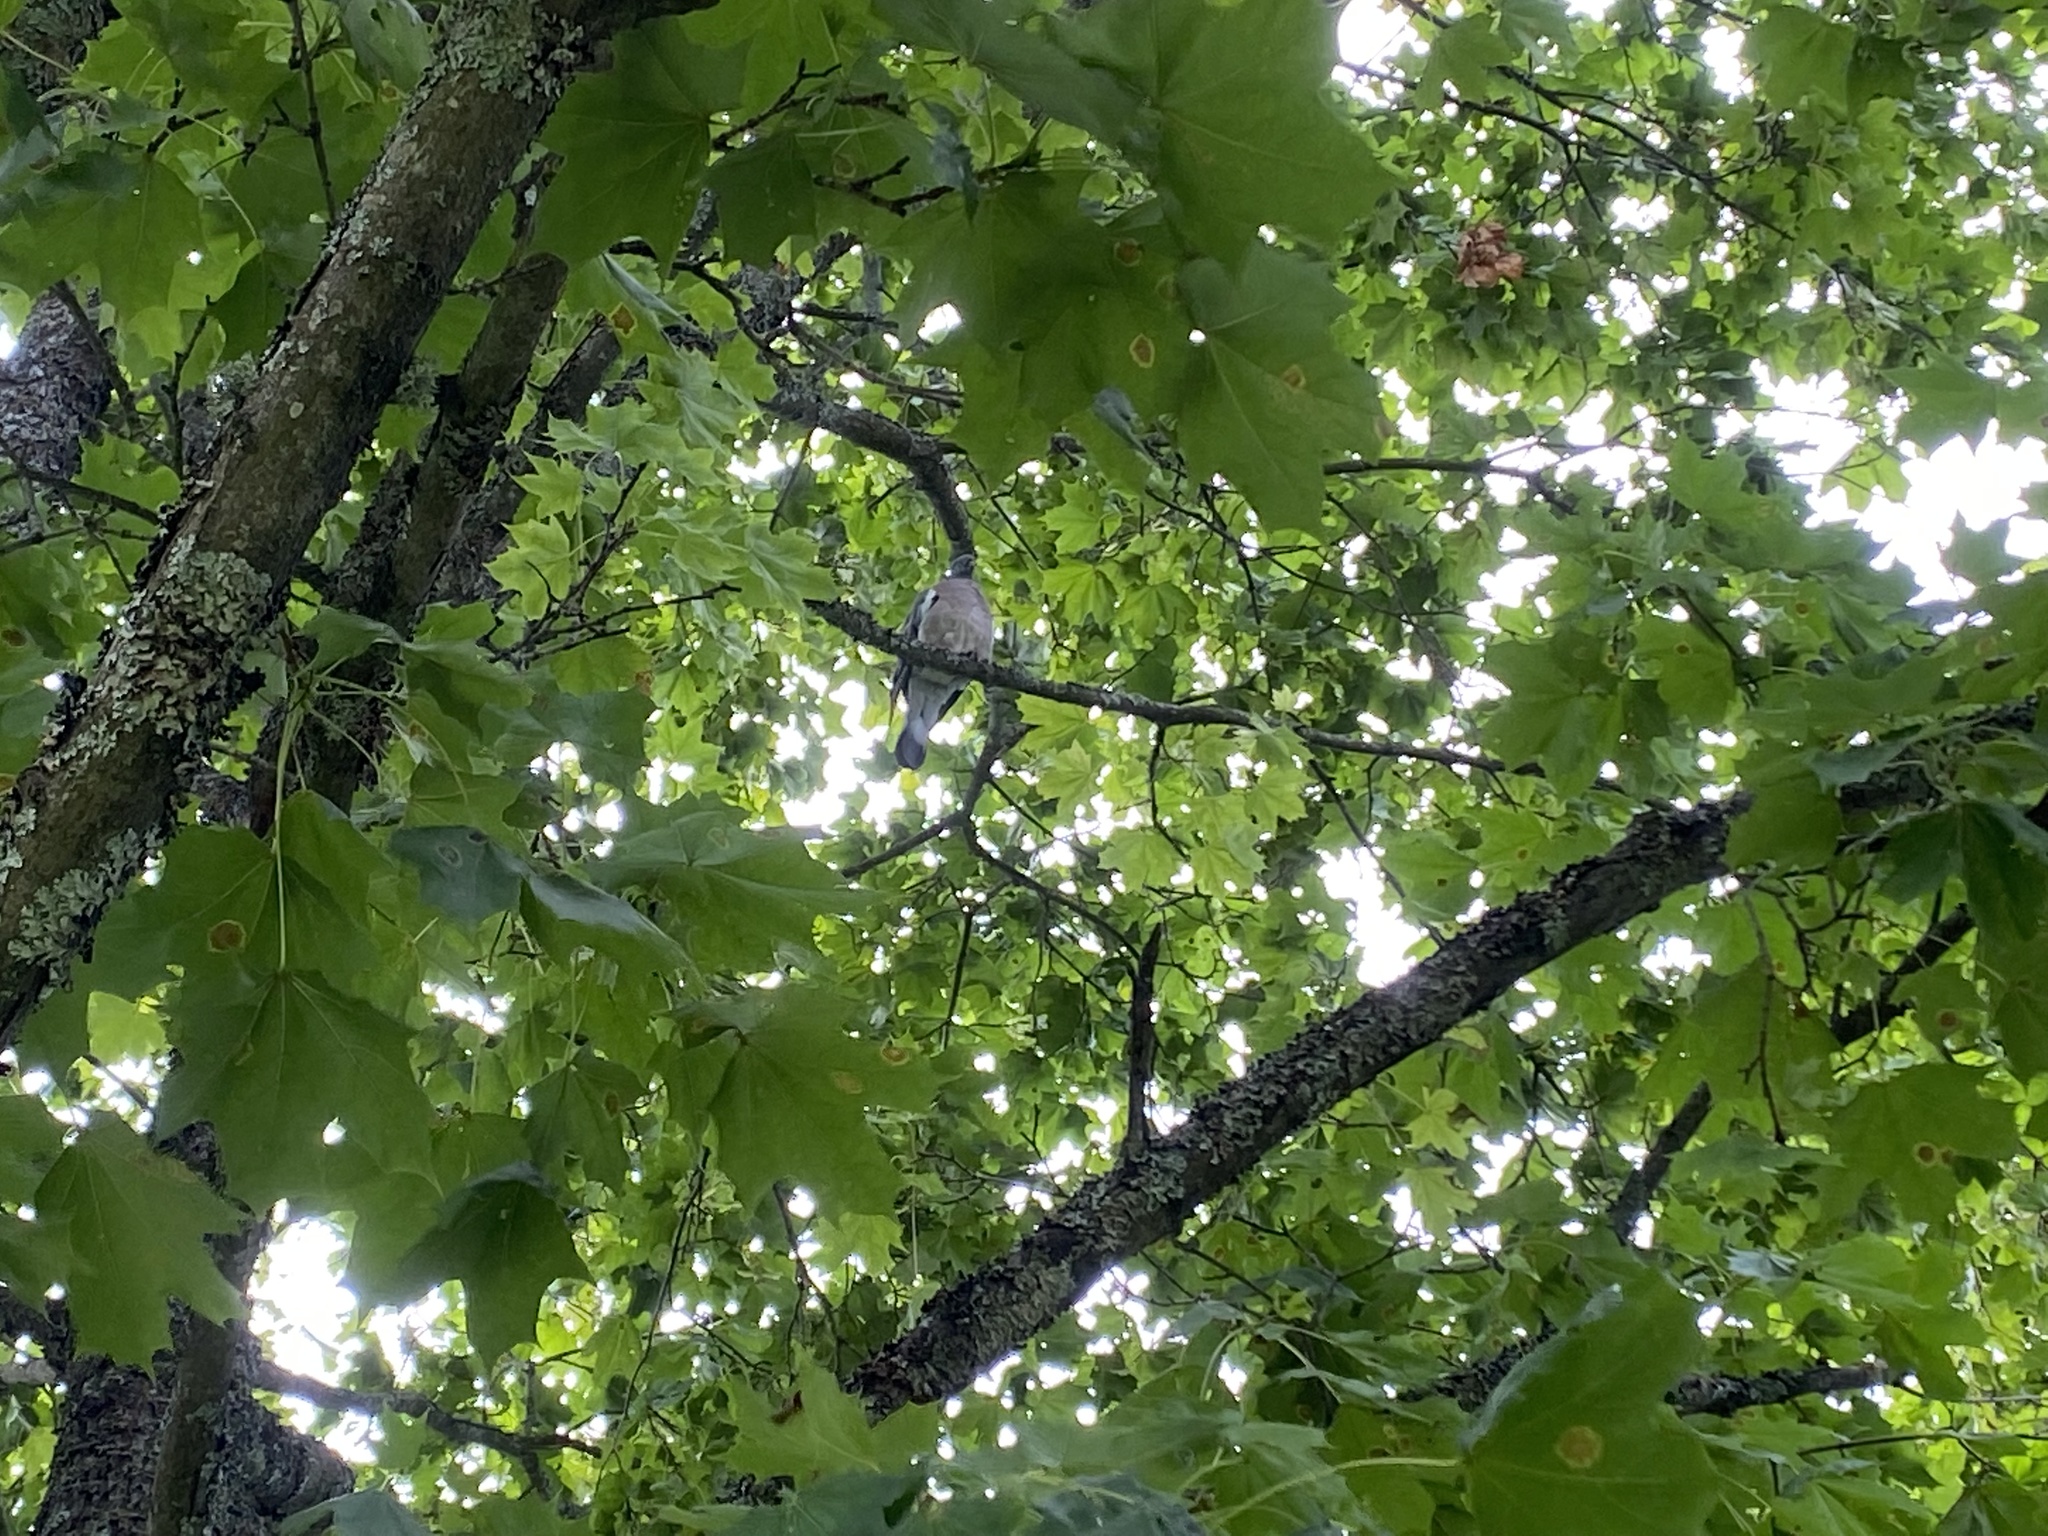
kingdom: Animalia
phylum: Chordata
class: Aves
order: Columbiformes
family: Columbidae
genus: Columba
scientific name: Columba palumbus
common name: Common wood pigeon
